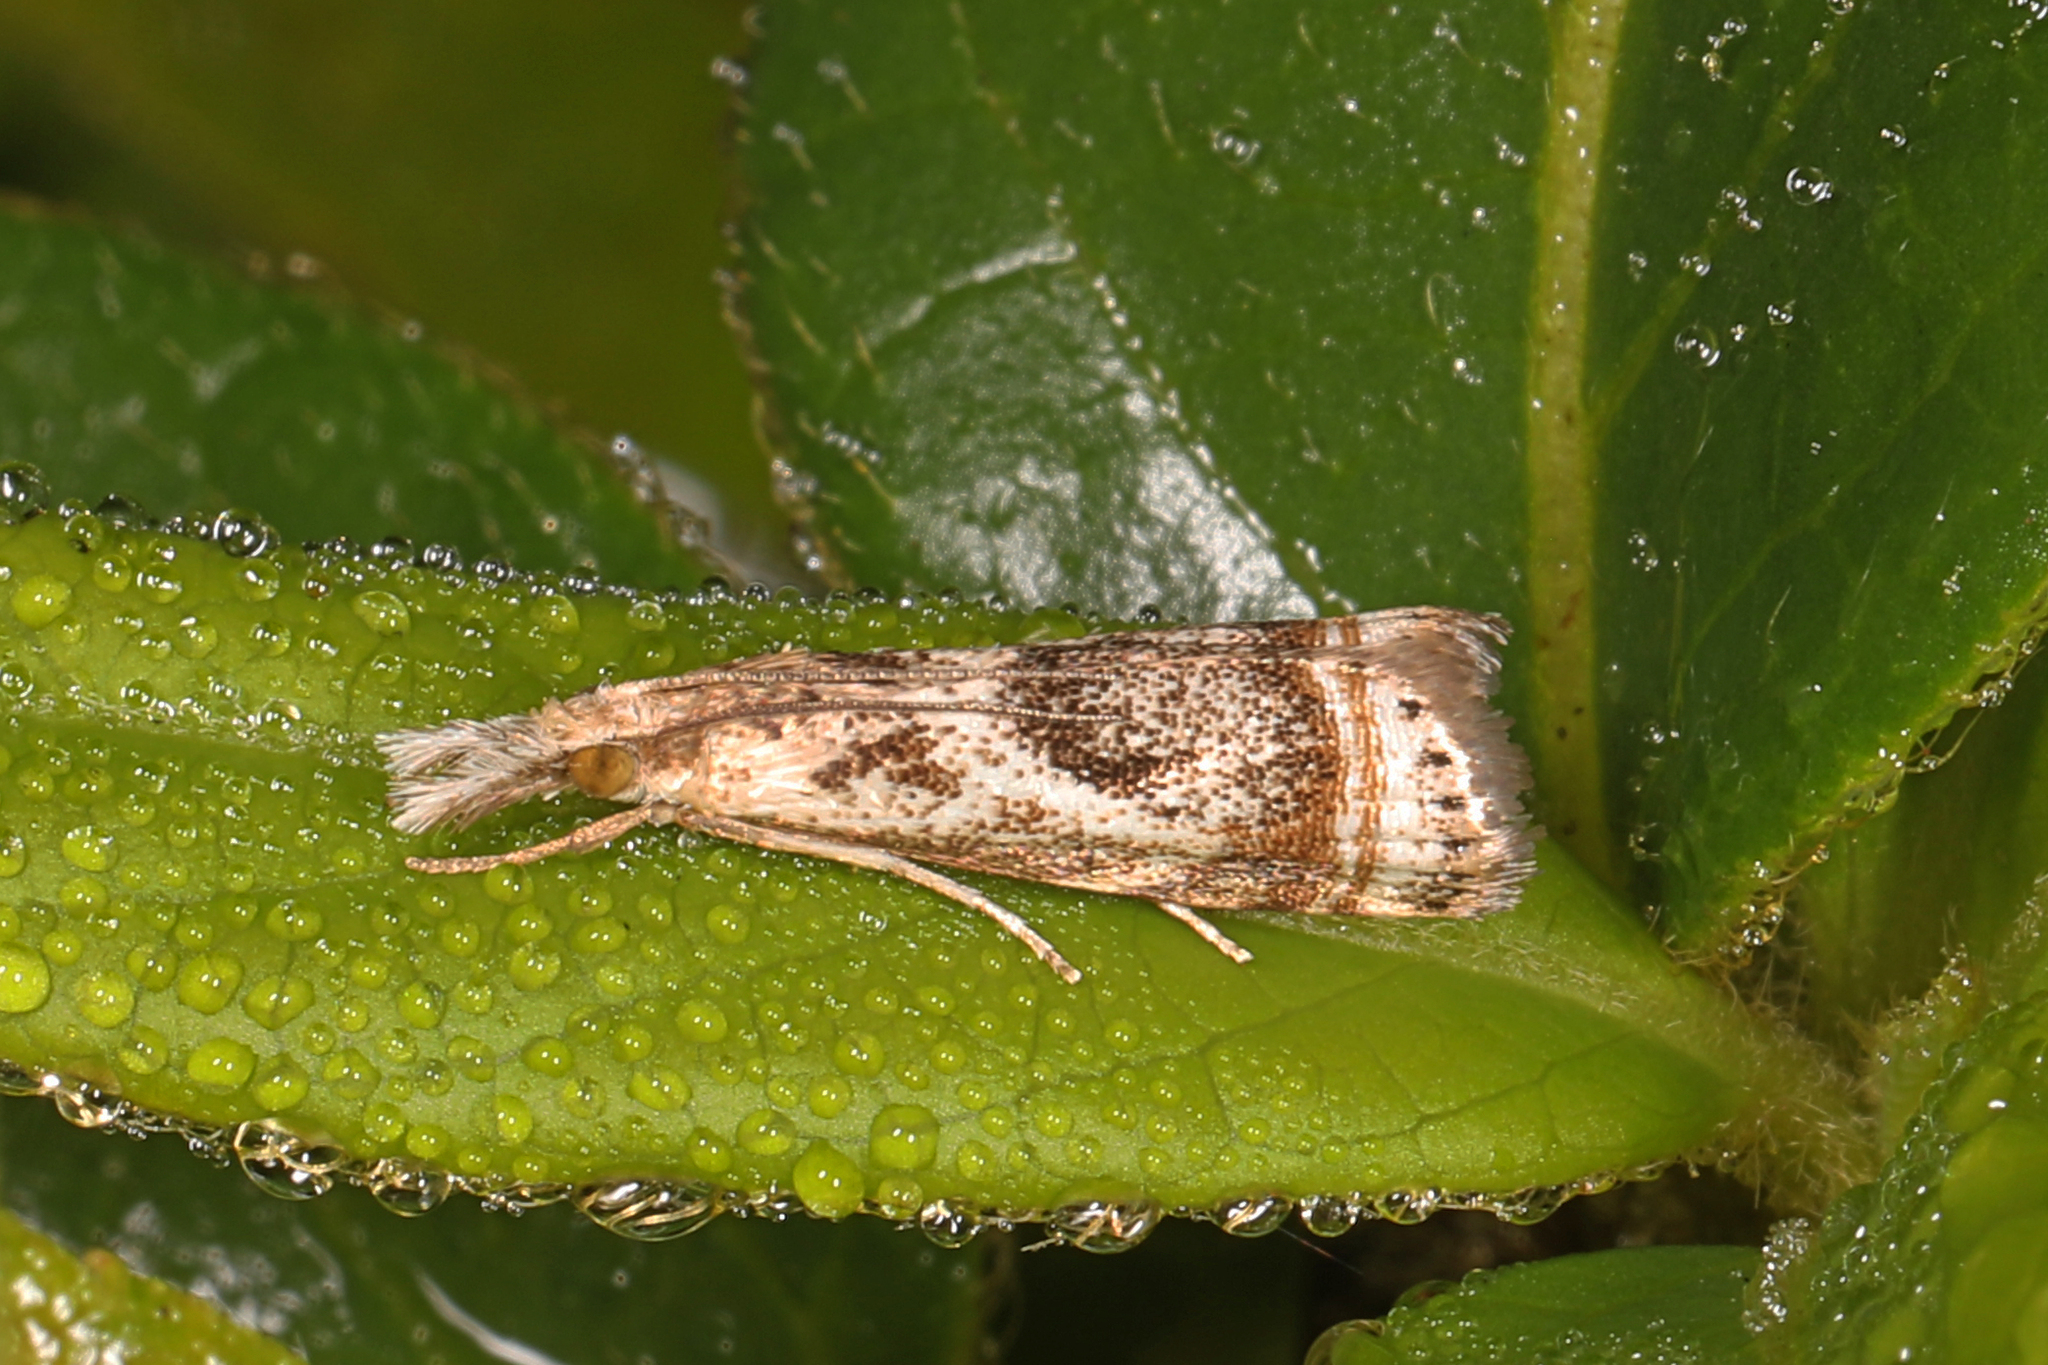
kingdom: Animalia
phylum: Arthropoda
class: Insecta
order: Lepidoptera
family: Crambidae
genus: Microcrambus
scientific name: Microcrambus elegans
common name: Elegant grass-veneer
